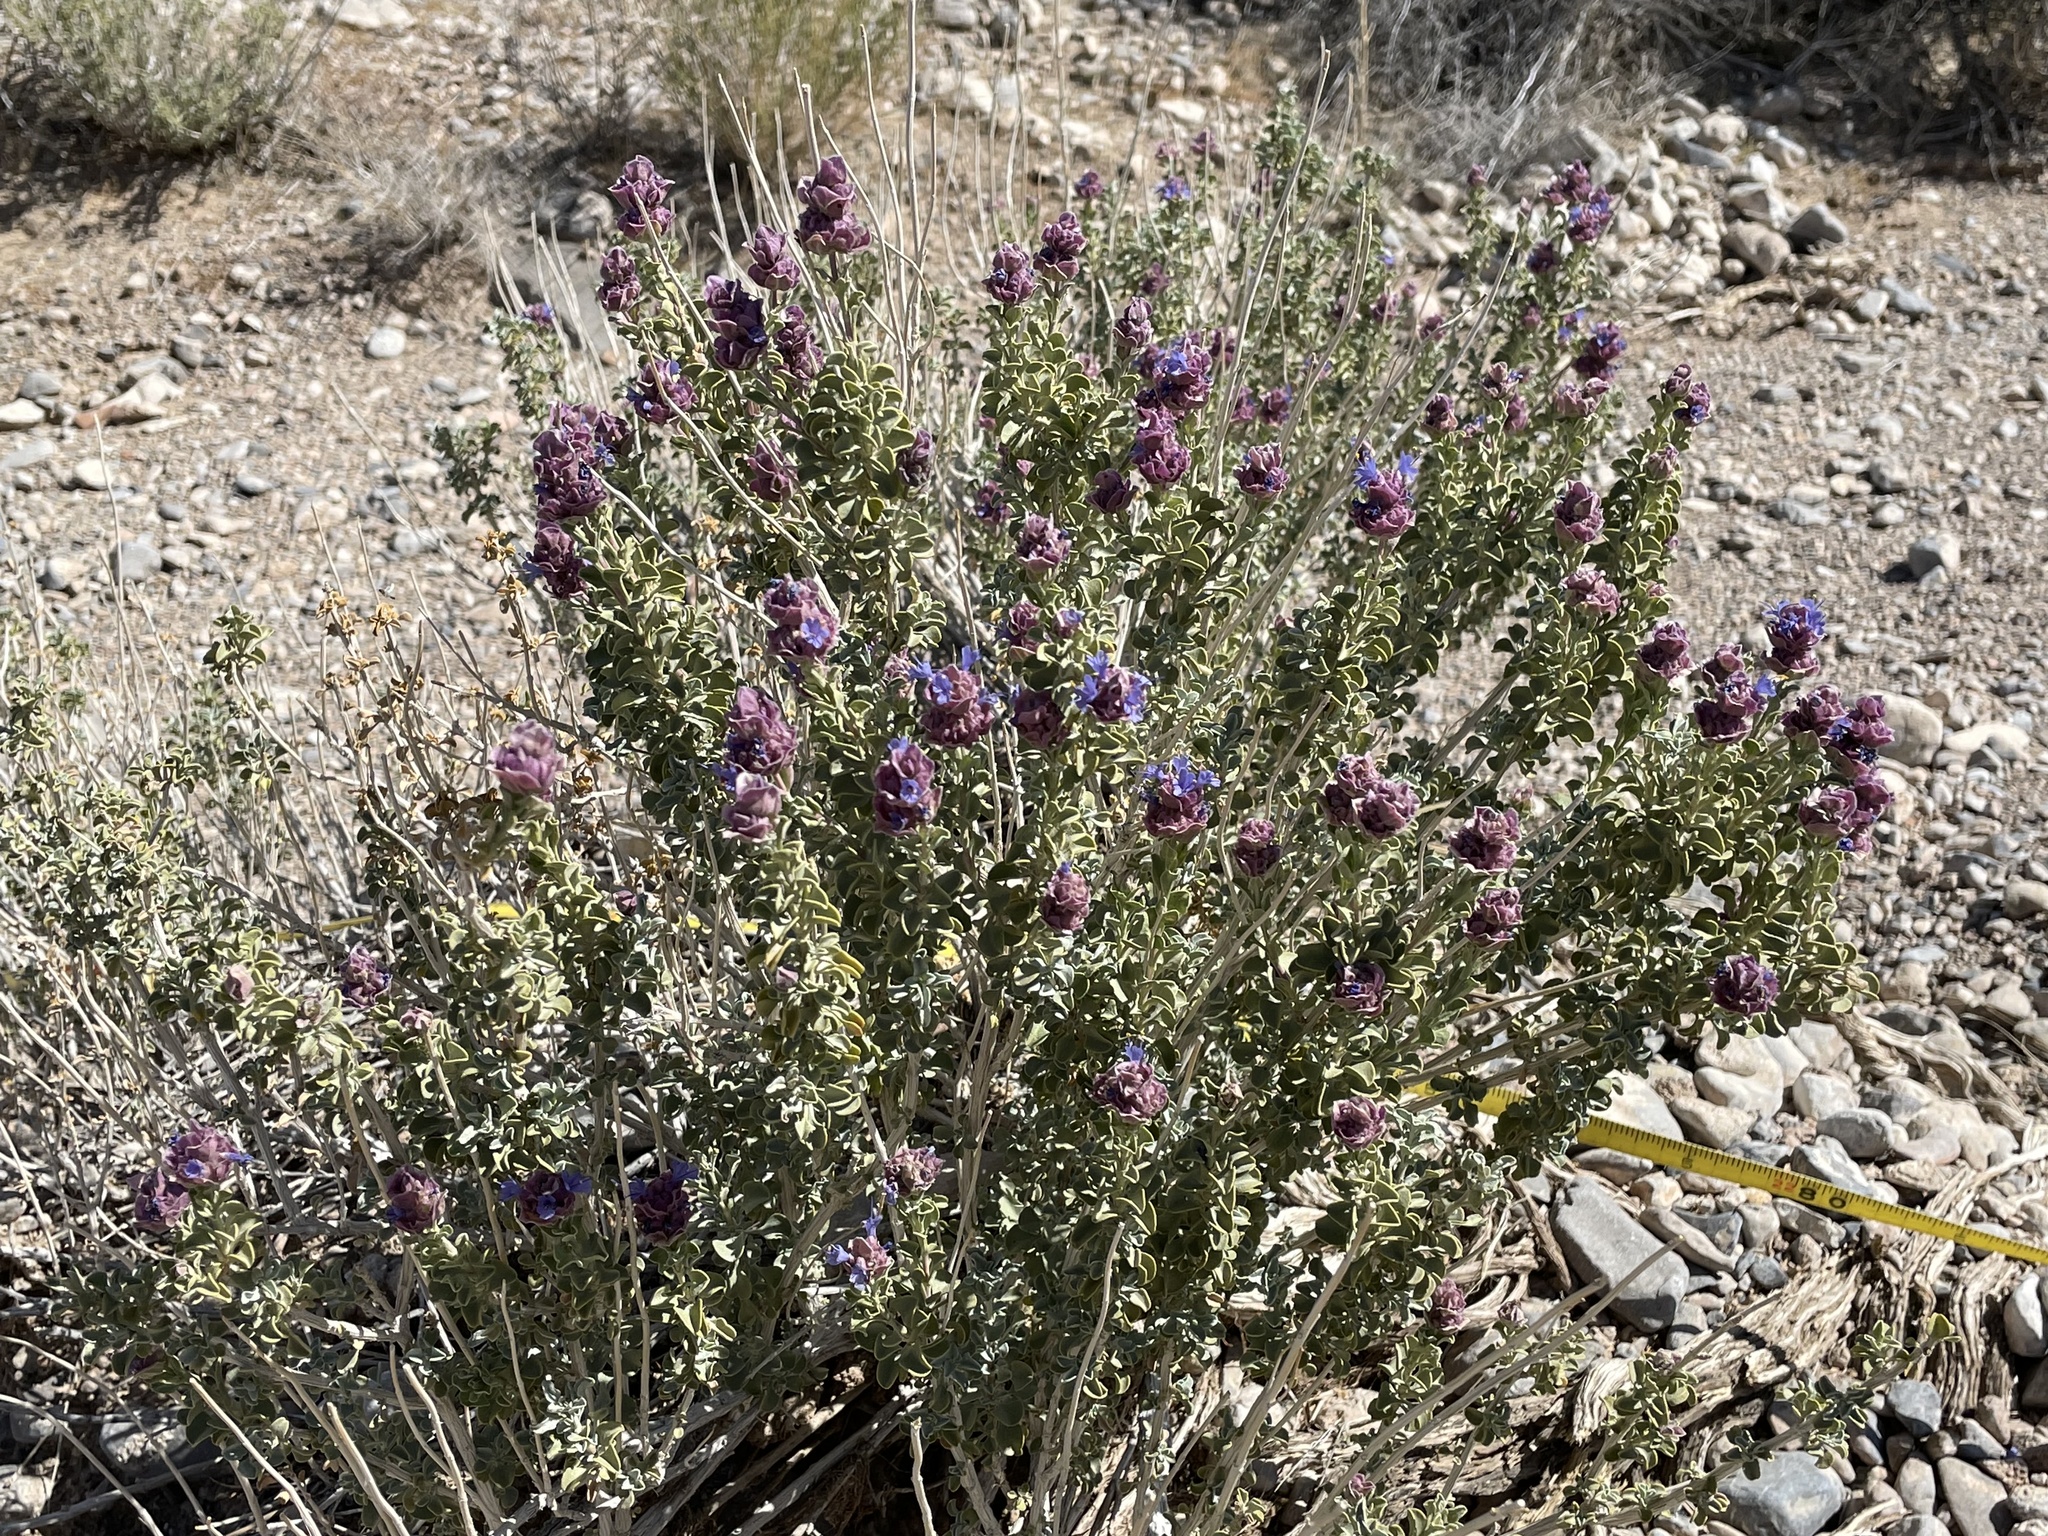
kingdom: Plantae
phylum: Tracheophyta
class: Magnoliopsida
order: Lamiales
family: Lamiaceae
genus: Salvia
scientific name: Salvia dorrii
